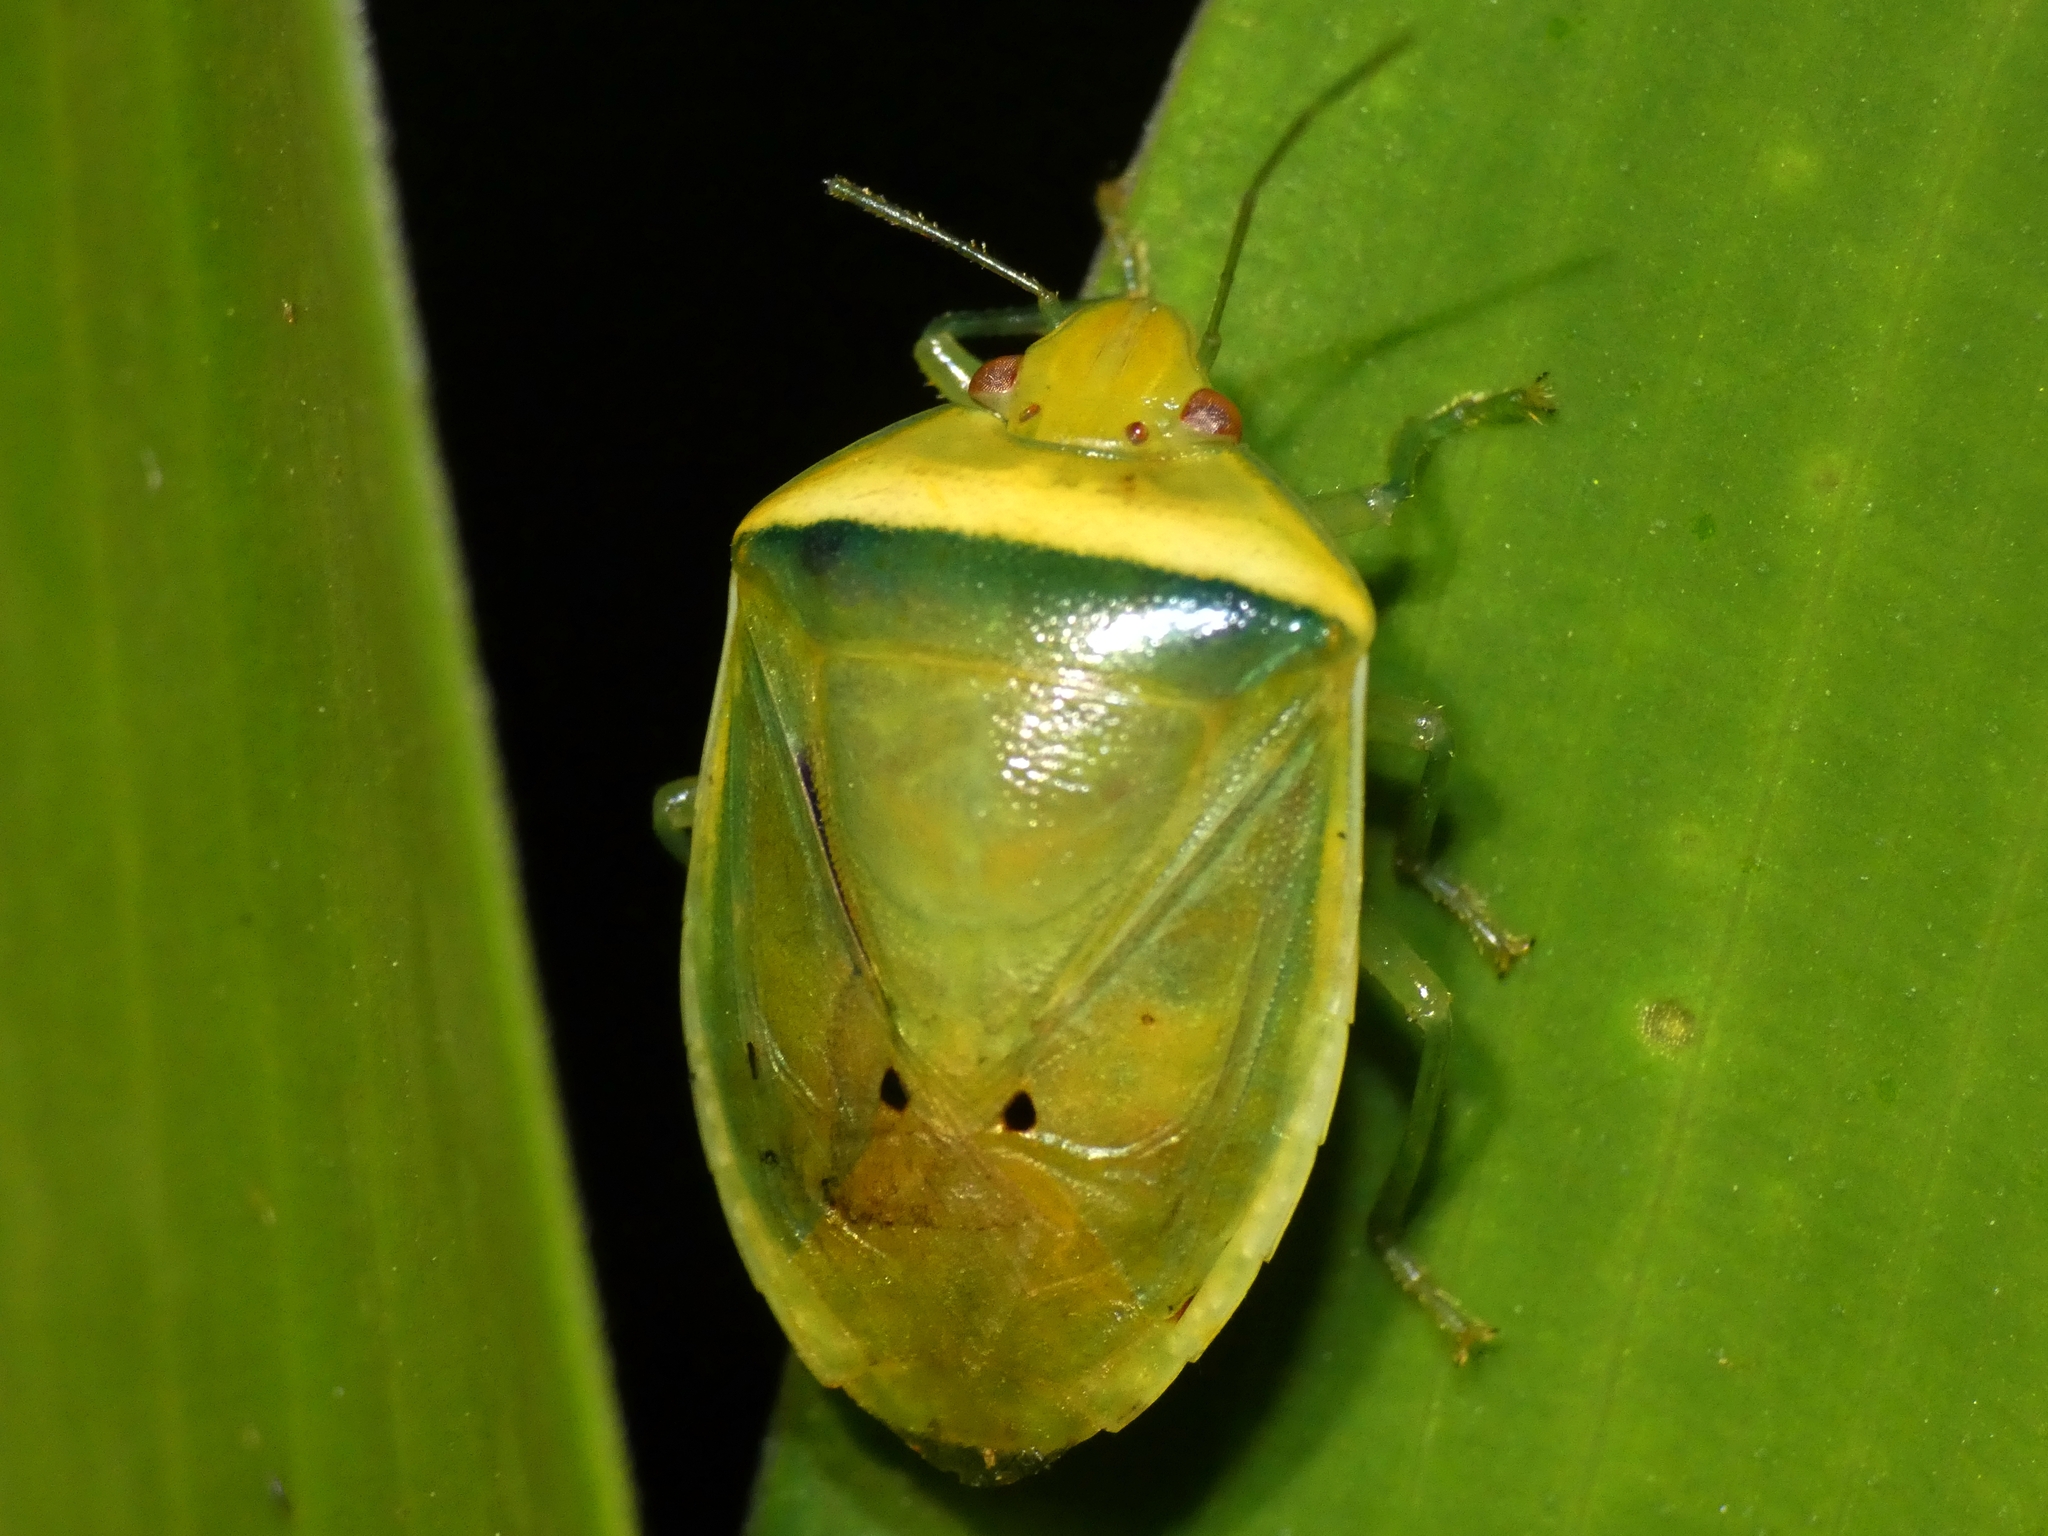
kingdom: Animalia
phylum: Arthropoda
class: Insecta
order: Hemiptera
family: Pentatomidae
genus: Alciphron
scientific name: Alciphron glaucus
